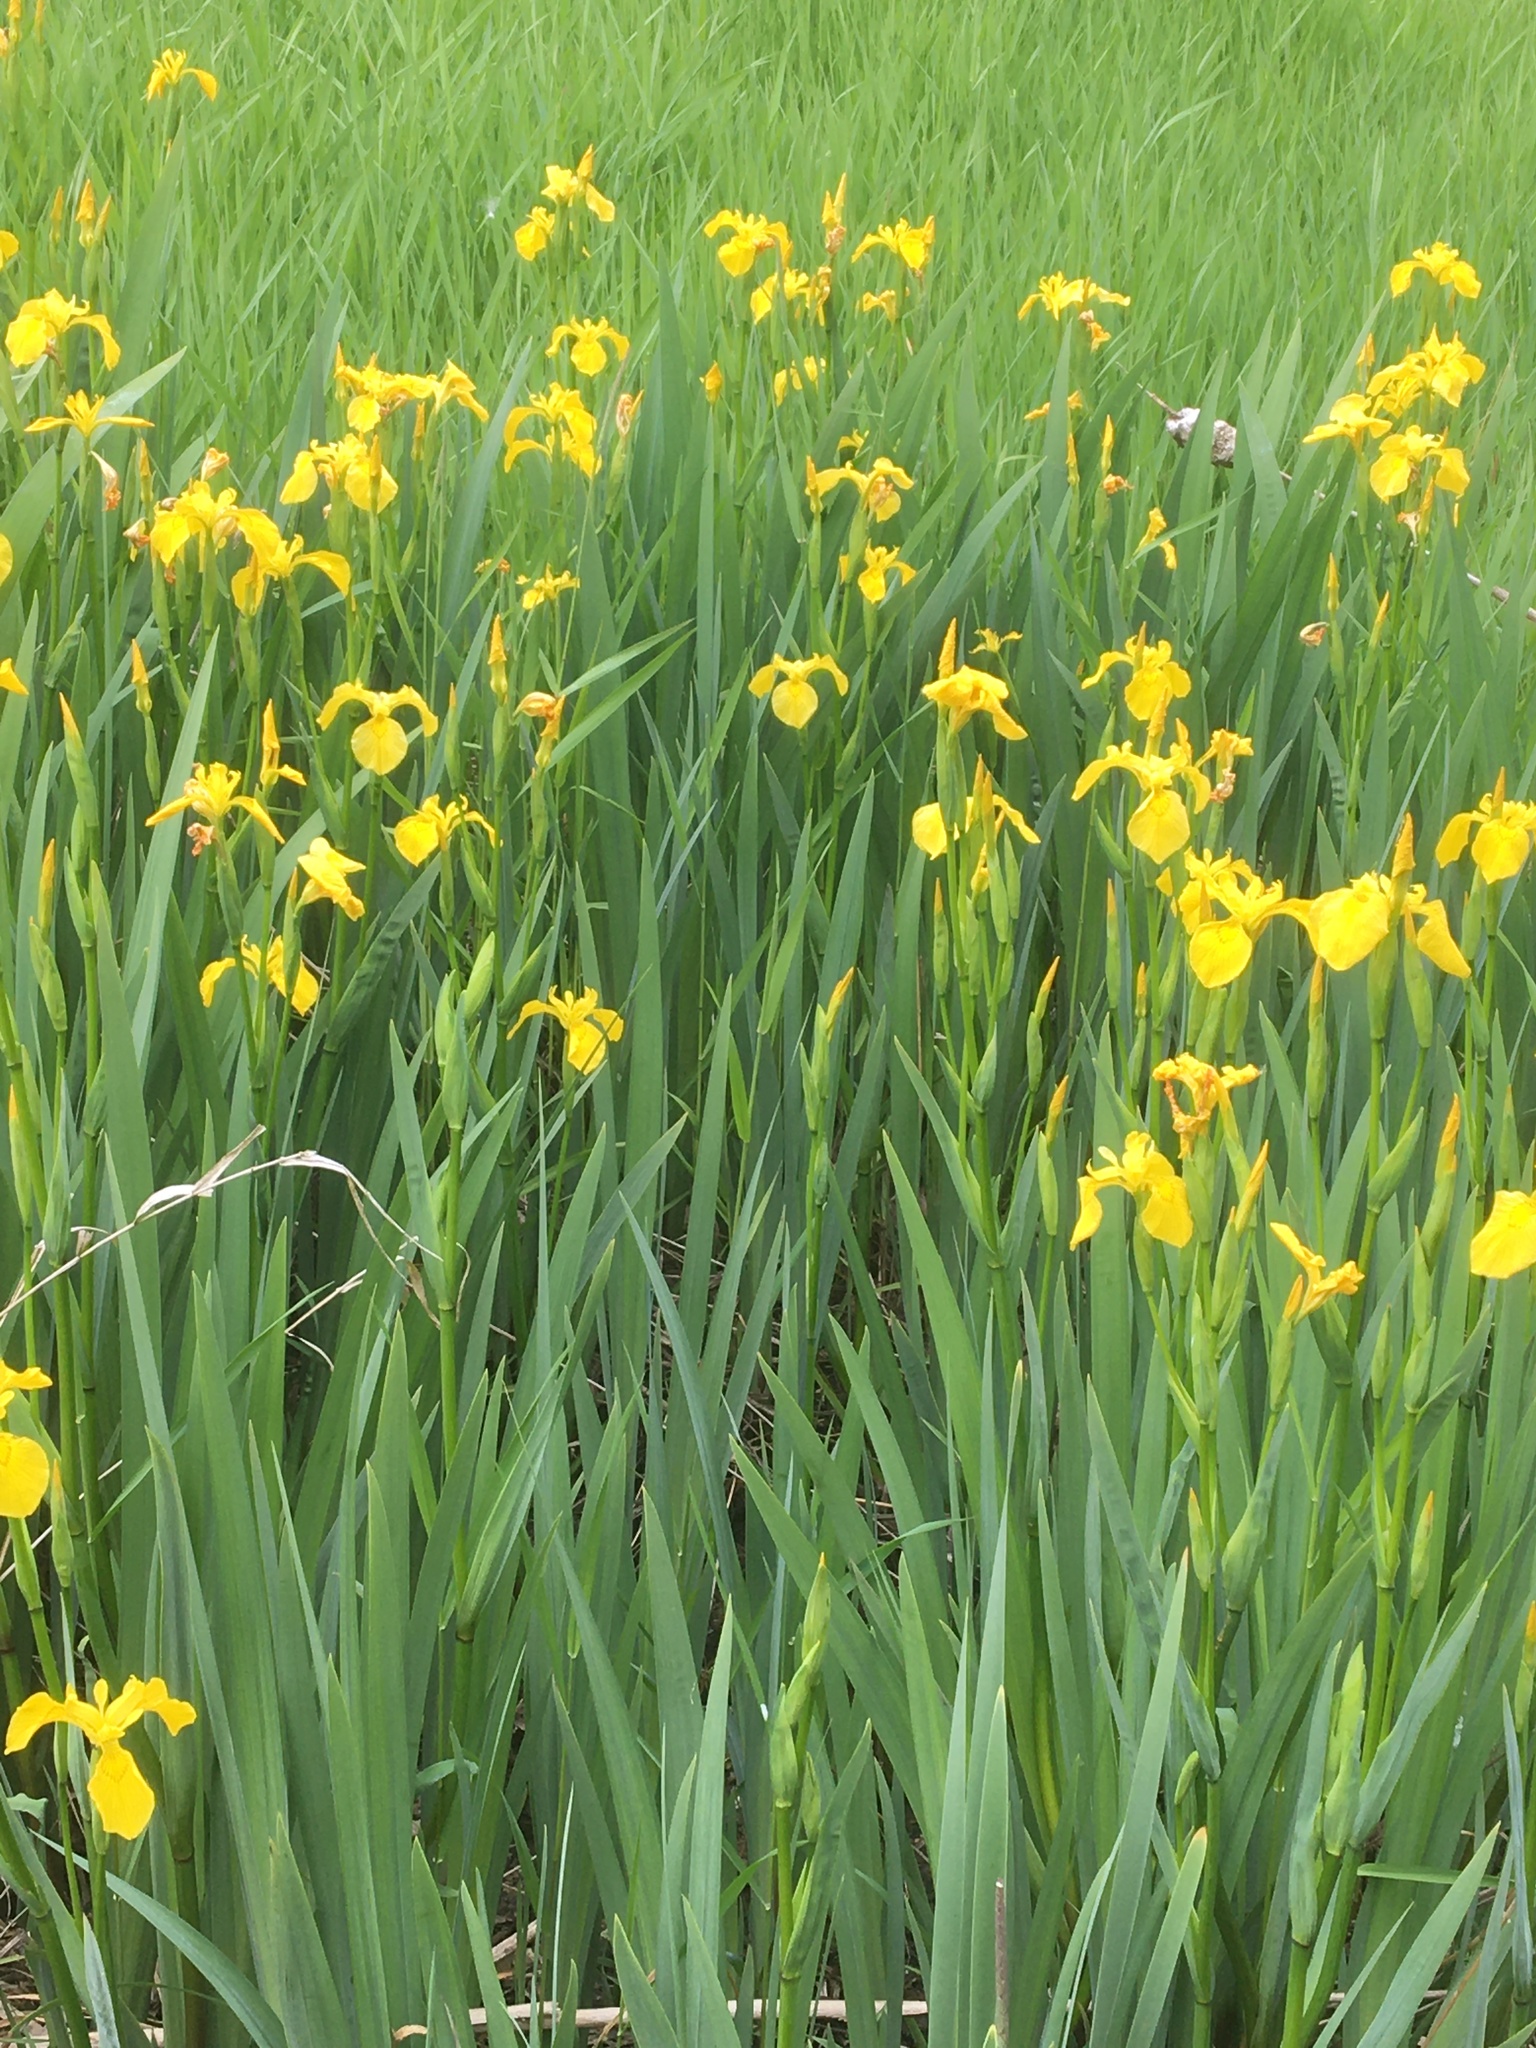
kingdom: Plantae
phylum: Tracheophyta
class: Liliopsida
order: Asparagales
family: Iridaceae
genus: Iris
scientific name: Iris pseudacorus
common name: Yellow flag
